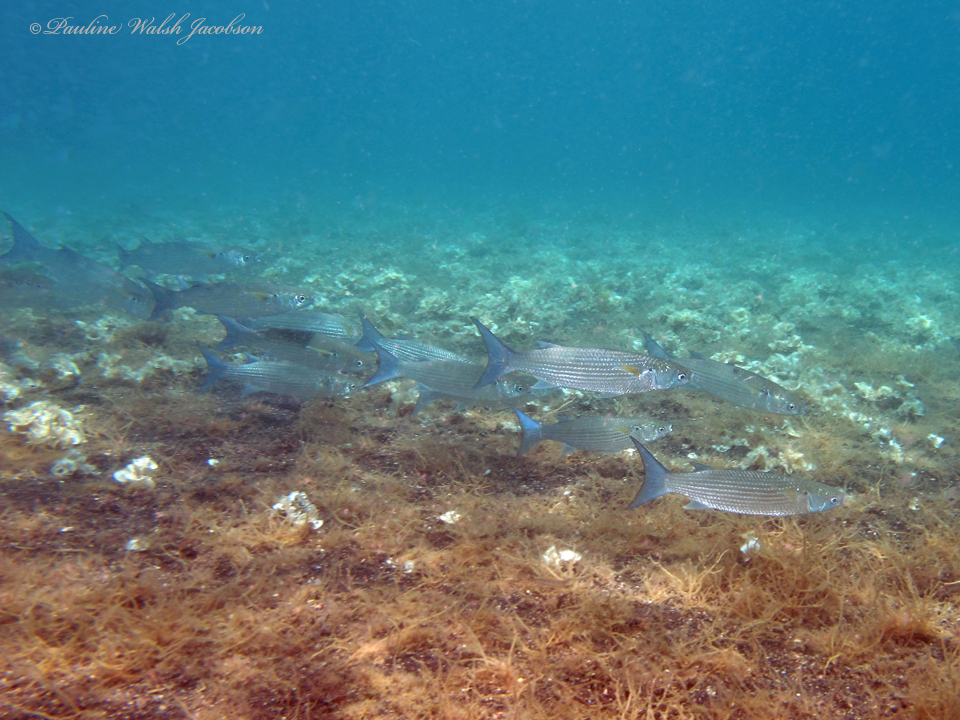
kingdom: Animalia
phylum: Chordata
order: Mugiliformes
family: Mugilidae
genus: Crenimugil
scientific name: Crenimugil seheli
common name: Bluespot mullet
